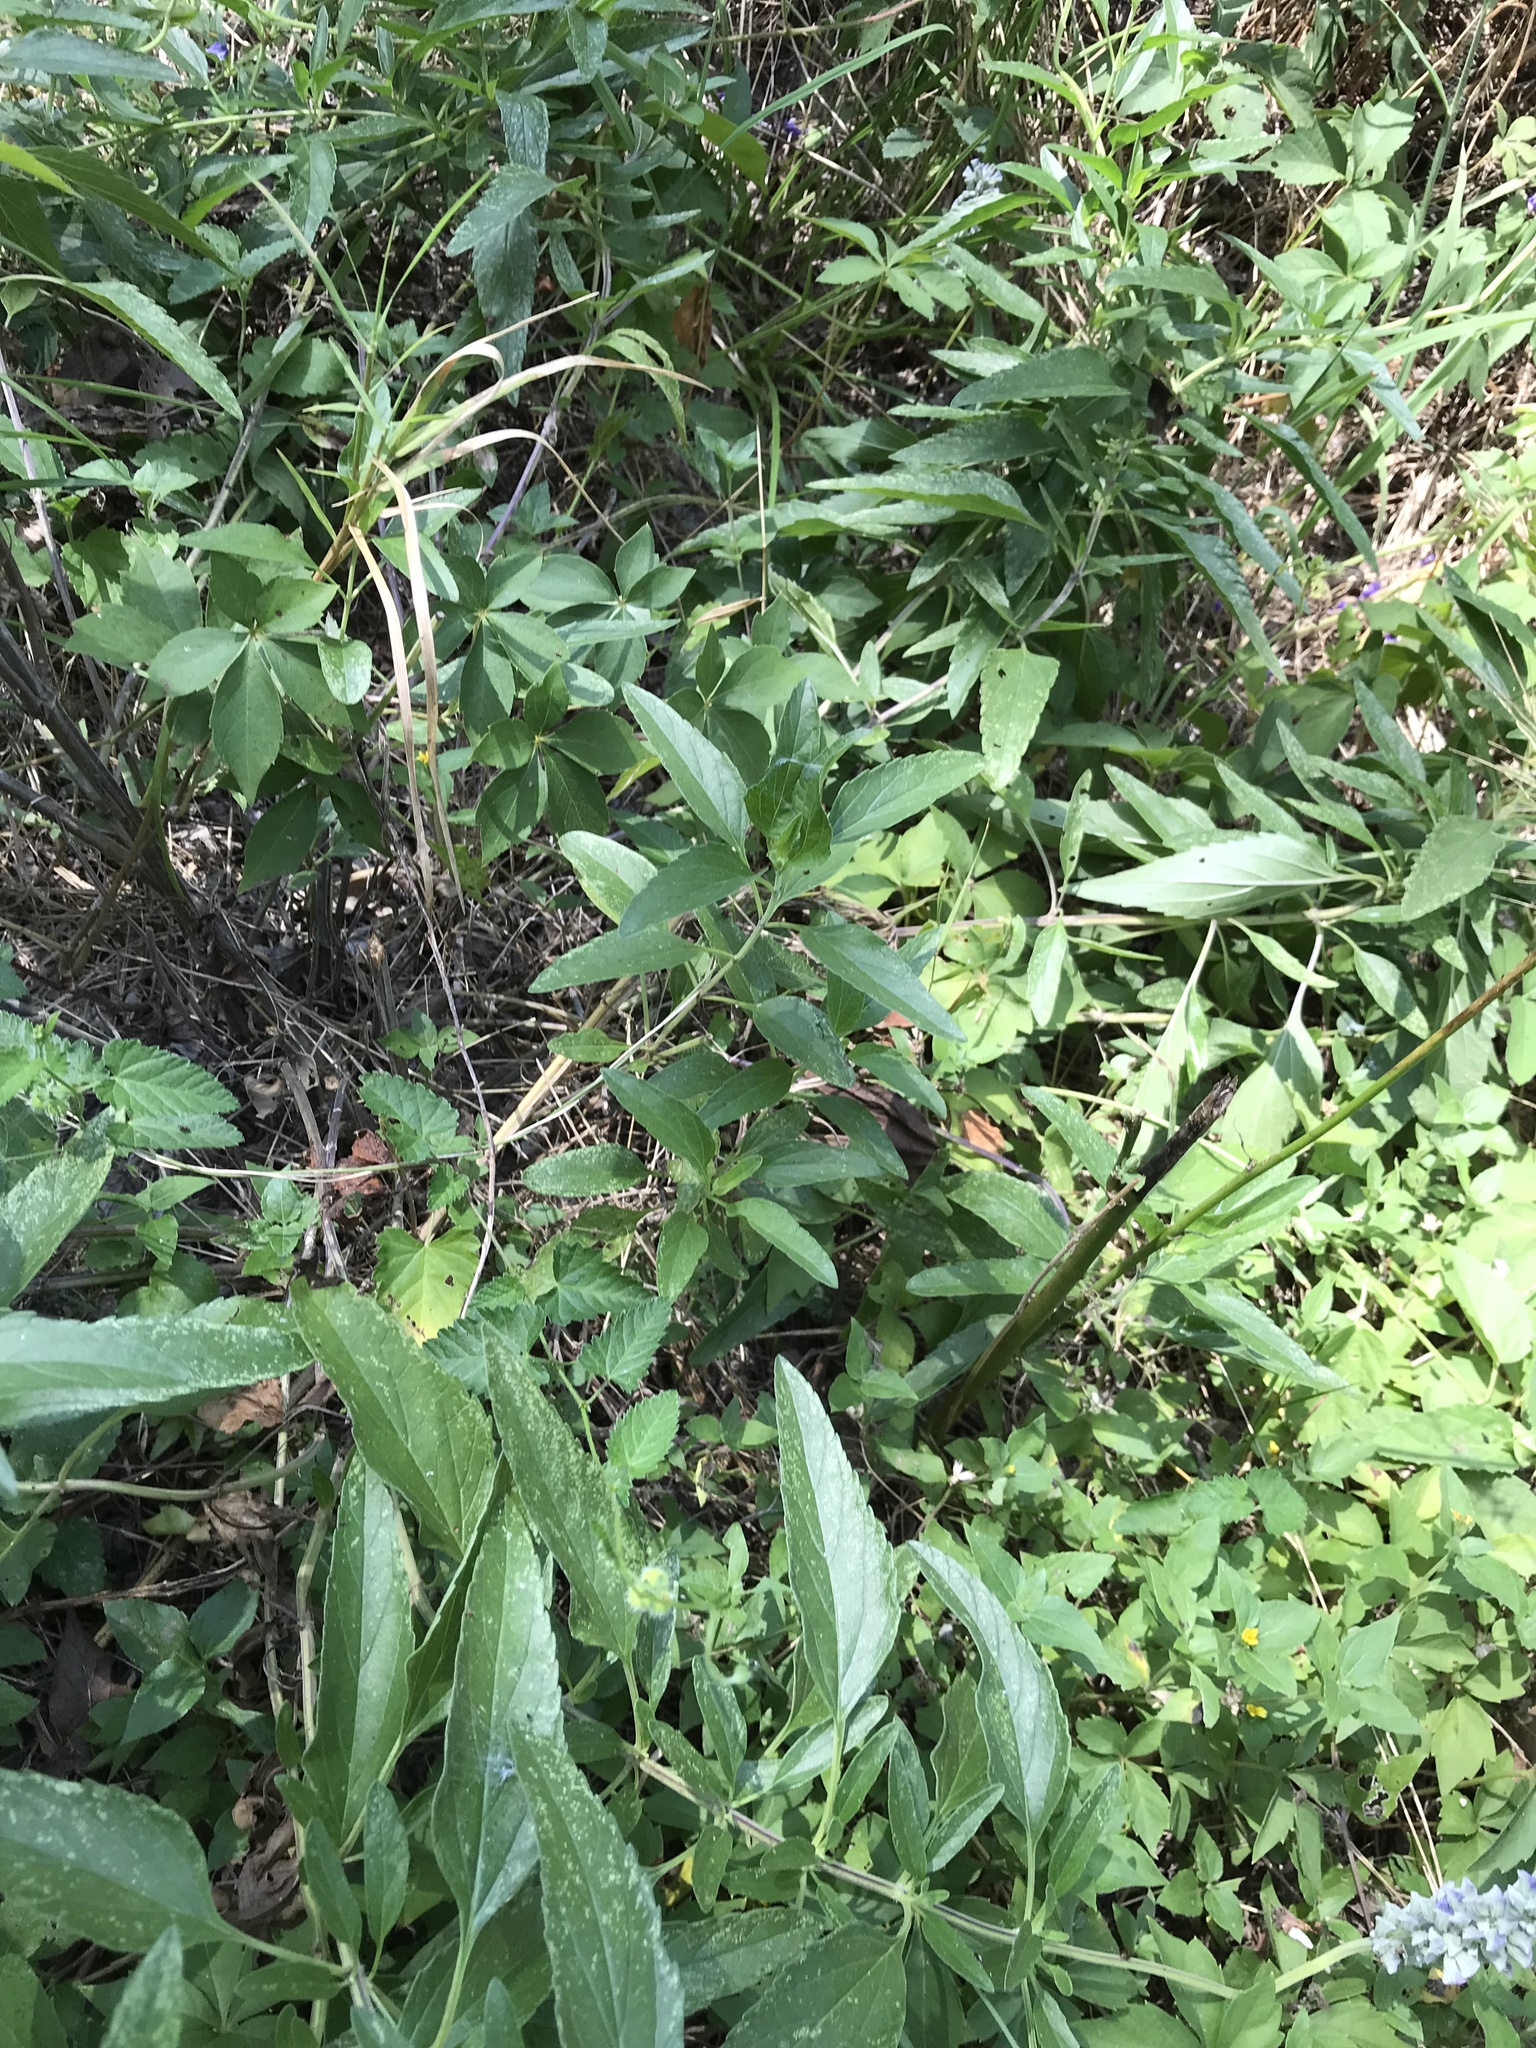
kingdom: Plantae
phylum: Tracheophyta
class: Magnoliopsida
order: Lamiales
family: Lamiaceae
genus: Salvia
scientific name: Salvia farinacea
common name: Mealy sage
